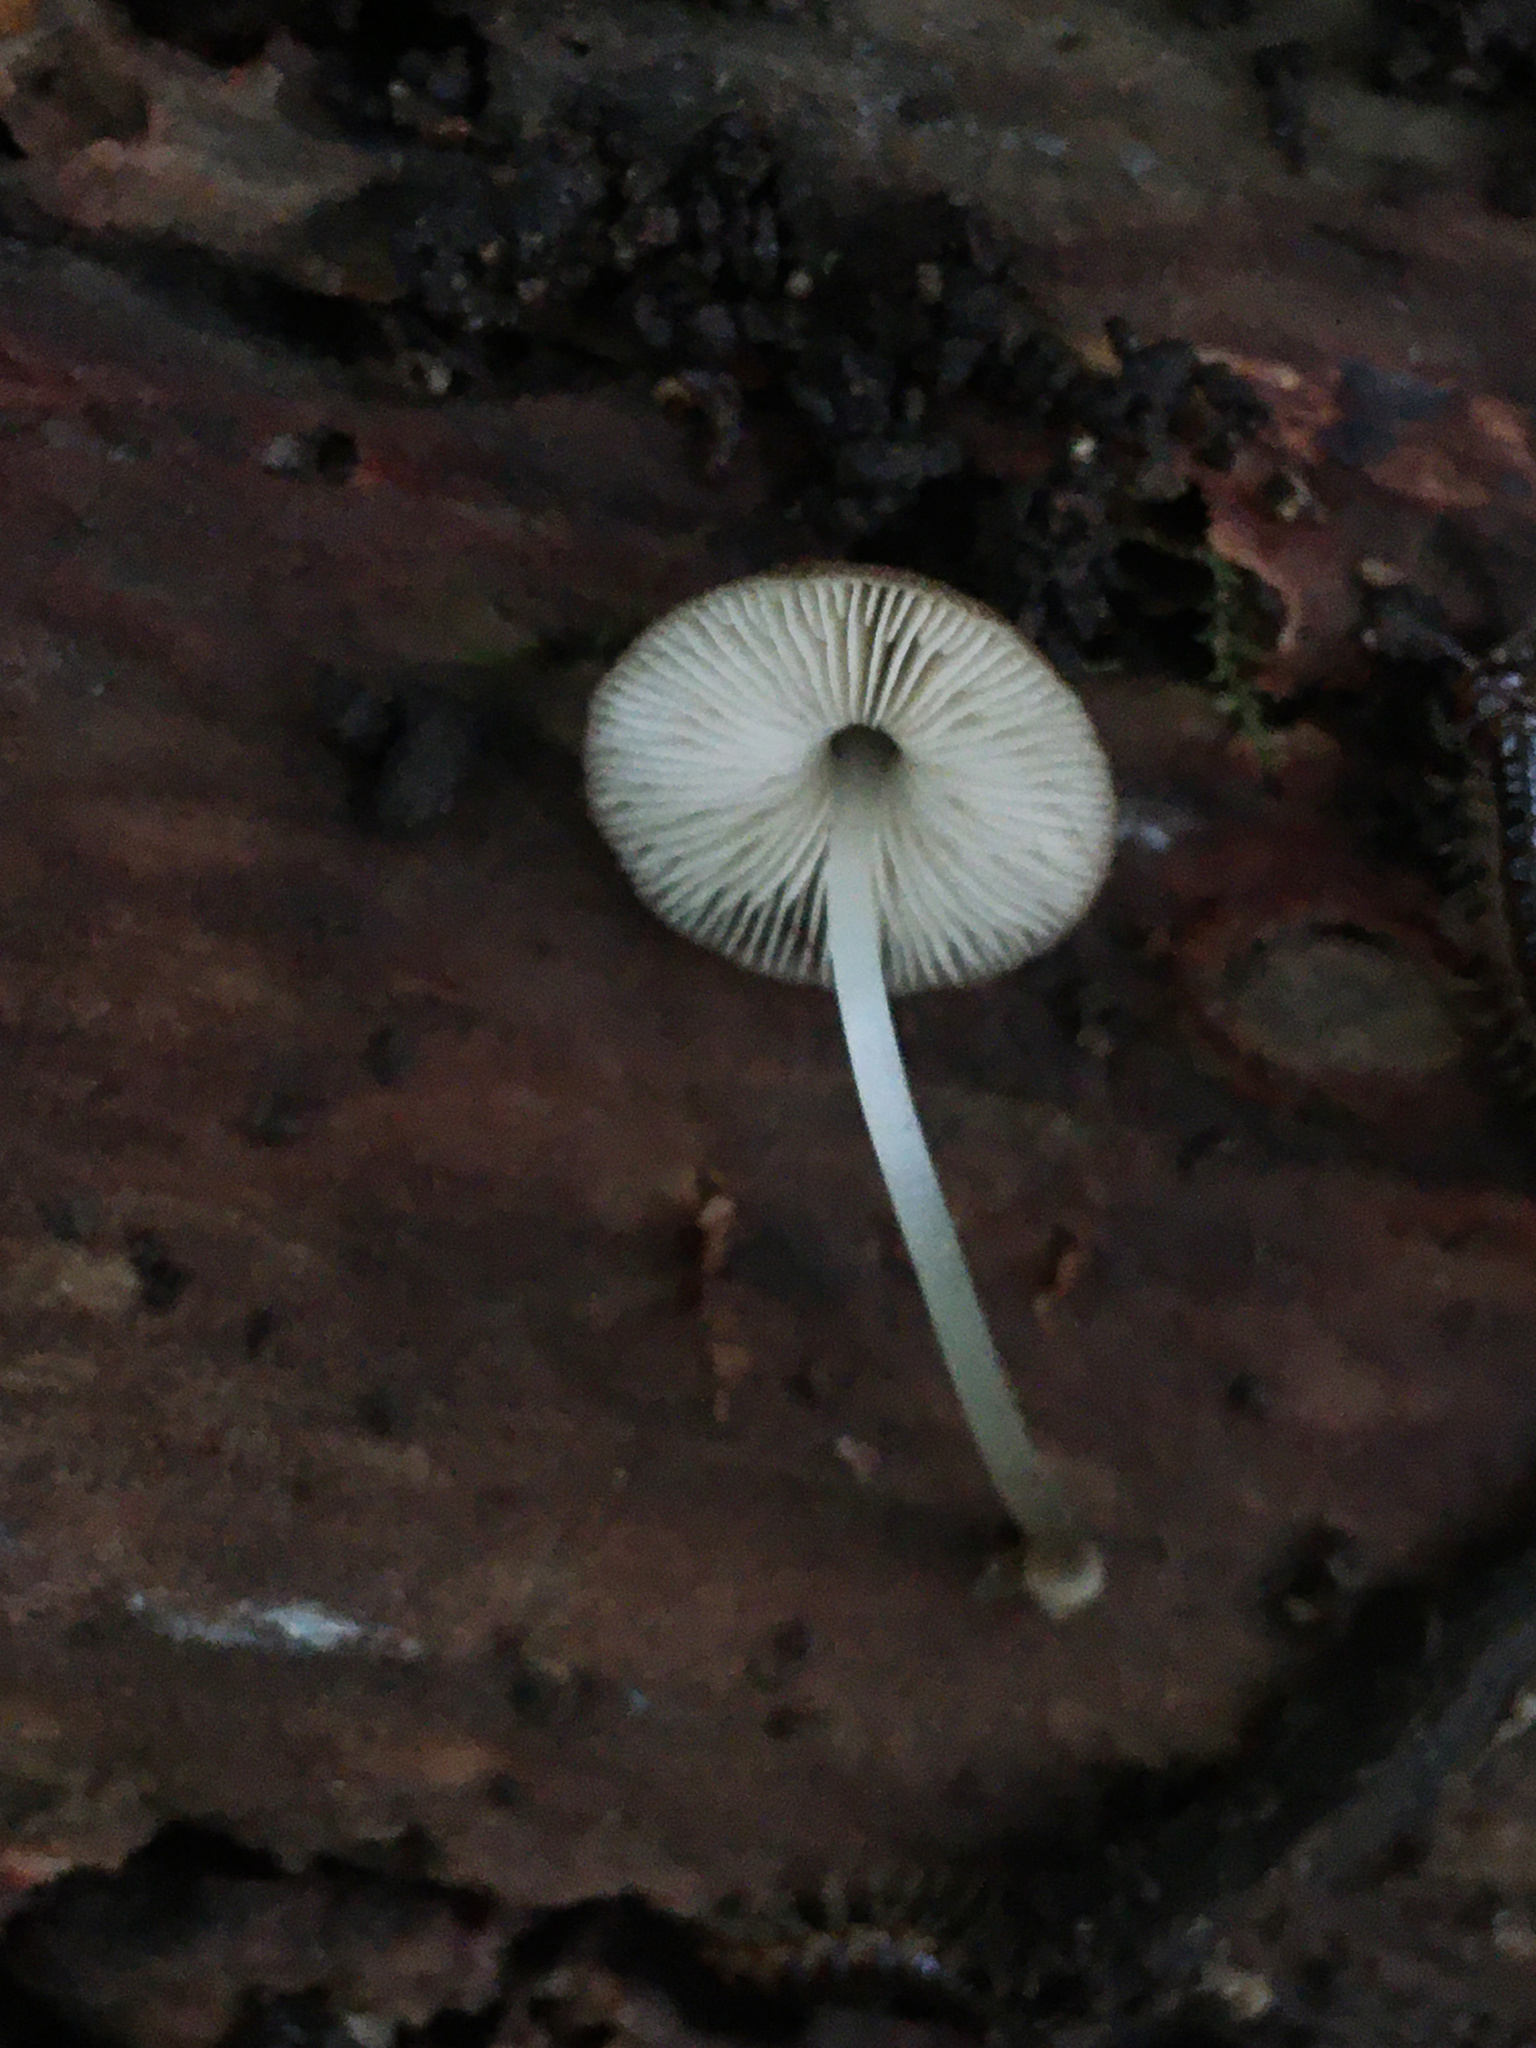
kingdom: Fungi
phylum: Basidiomycota
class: Agaricomycetes
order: Agaricales
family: Pluteaceae
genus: Pluteus
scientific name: Pluteus podospileus
